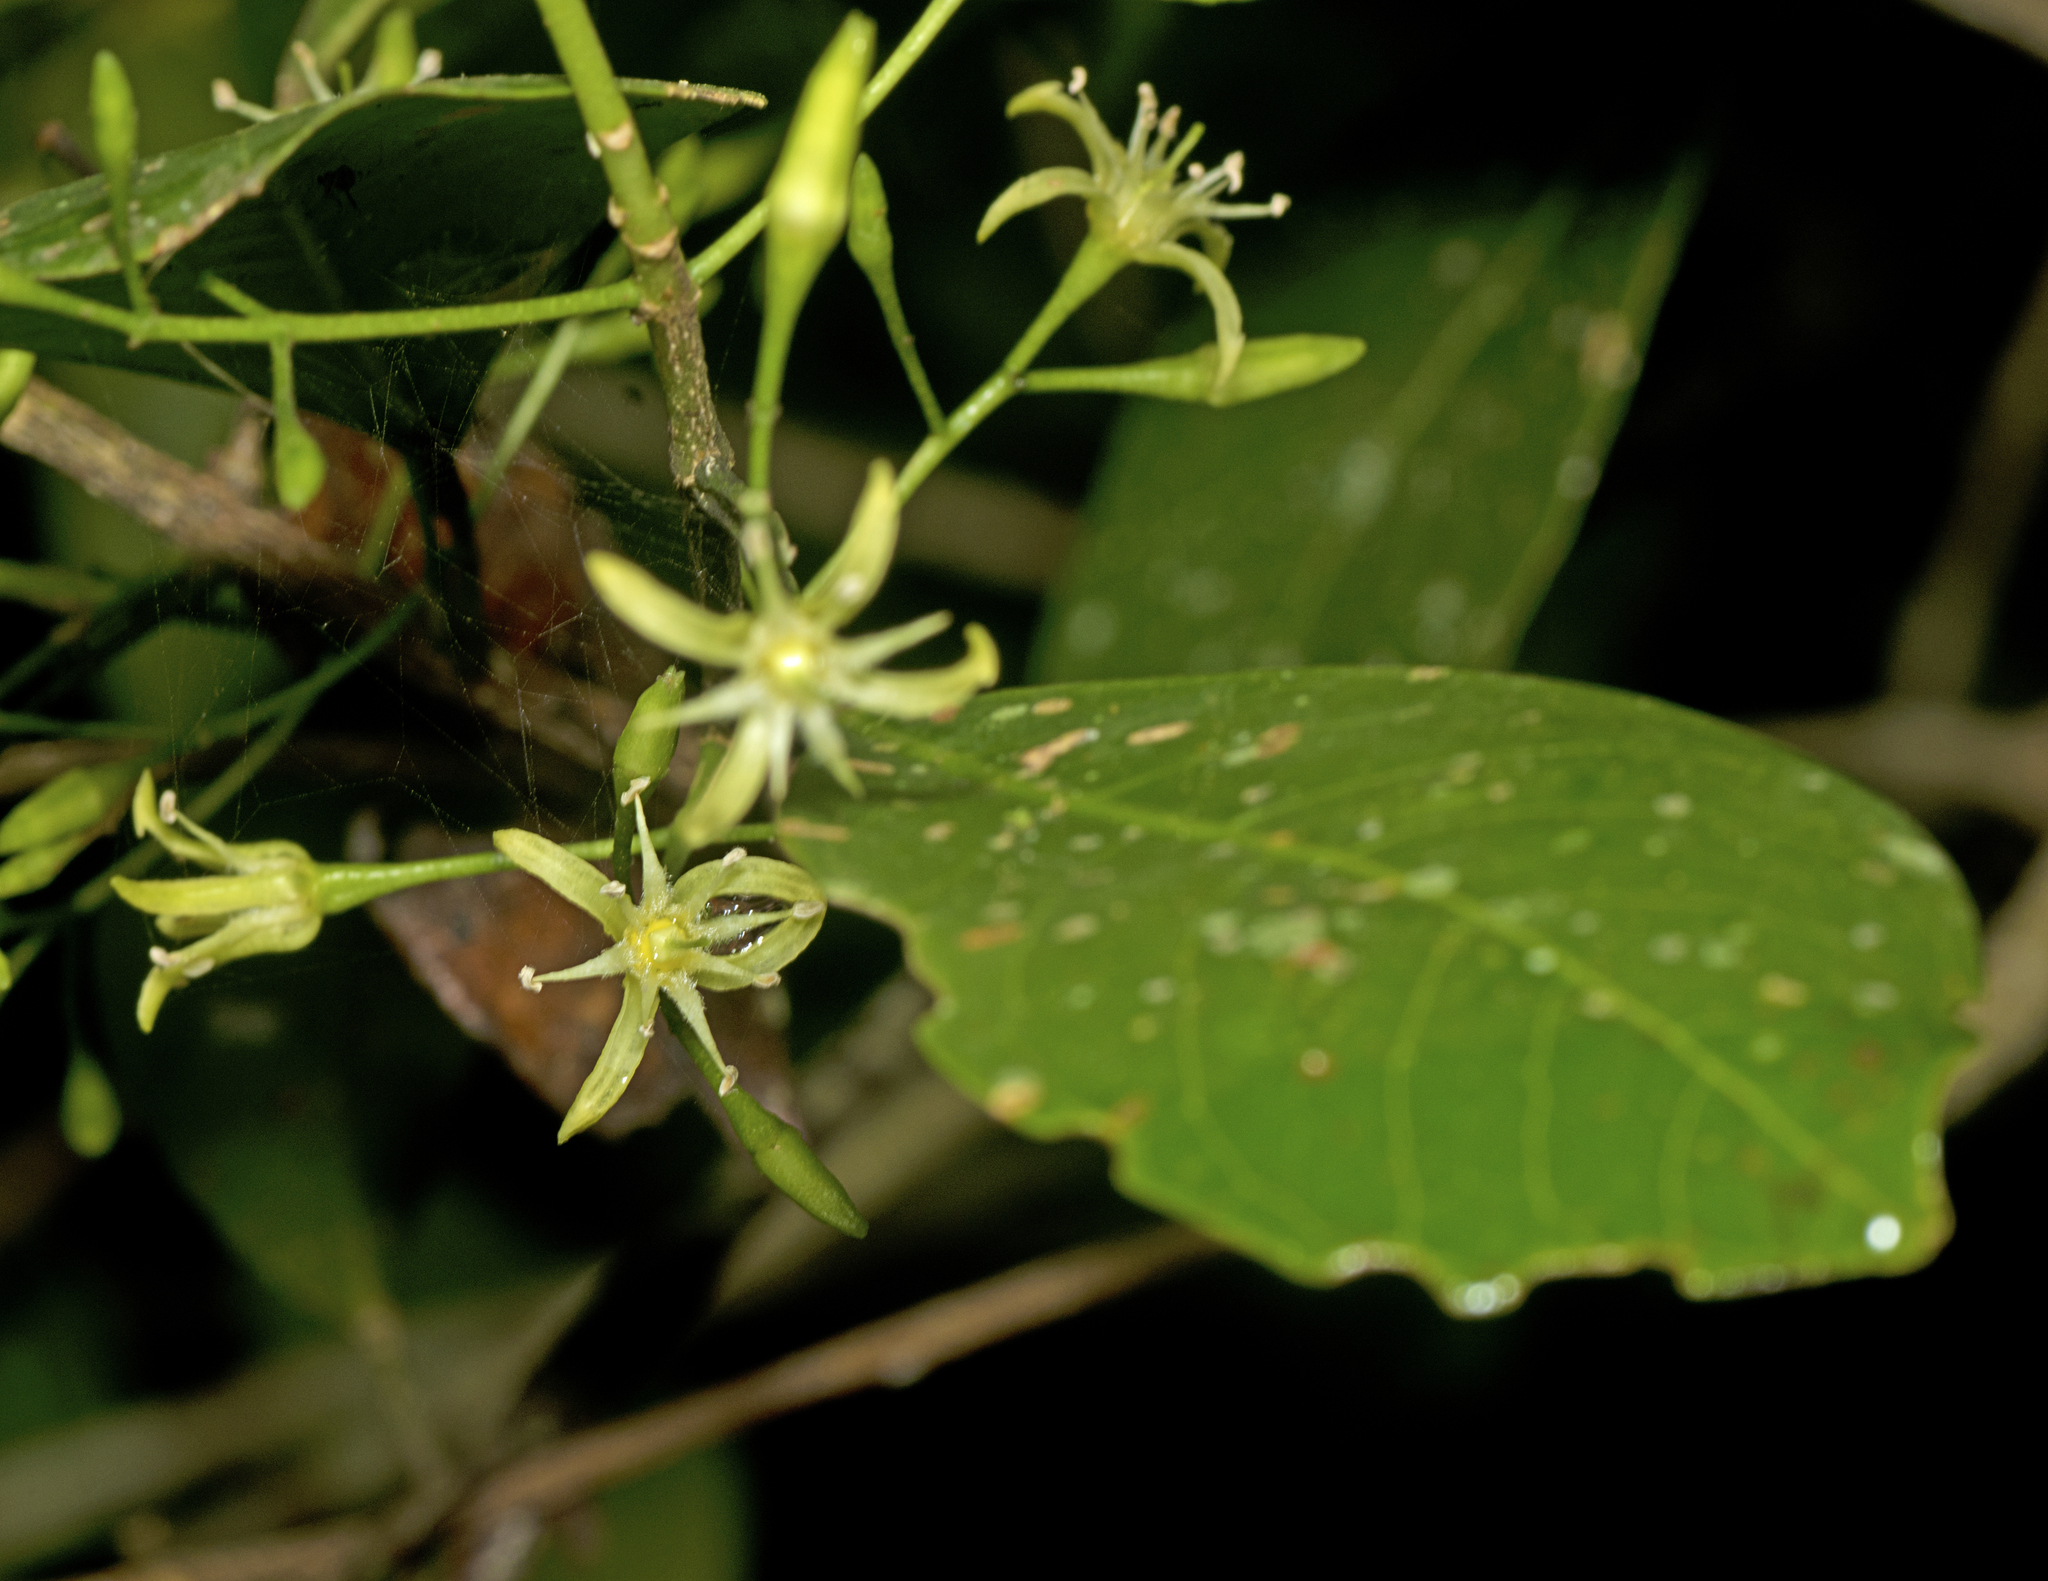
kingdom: Plantae
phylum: Tracheophyta
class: Magnoliopsida
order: Sapindales
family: Rutaceae
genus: Acronychia
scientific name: Acronychia laevis
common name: Hard aspen
